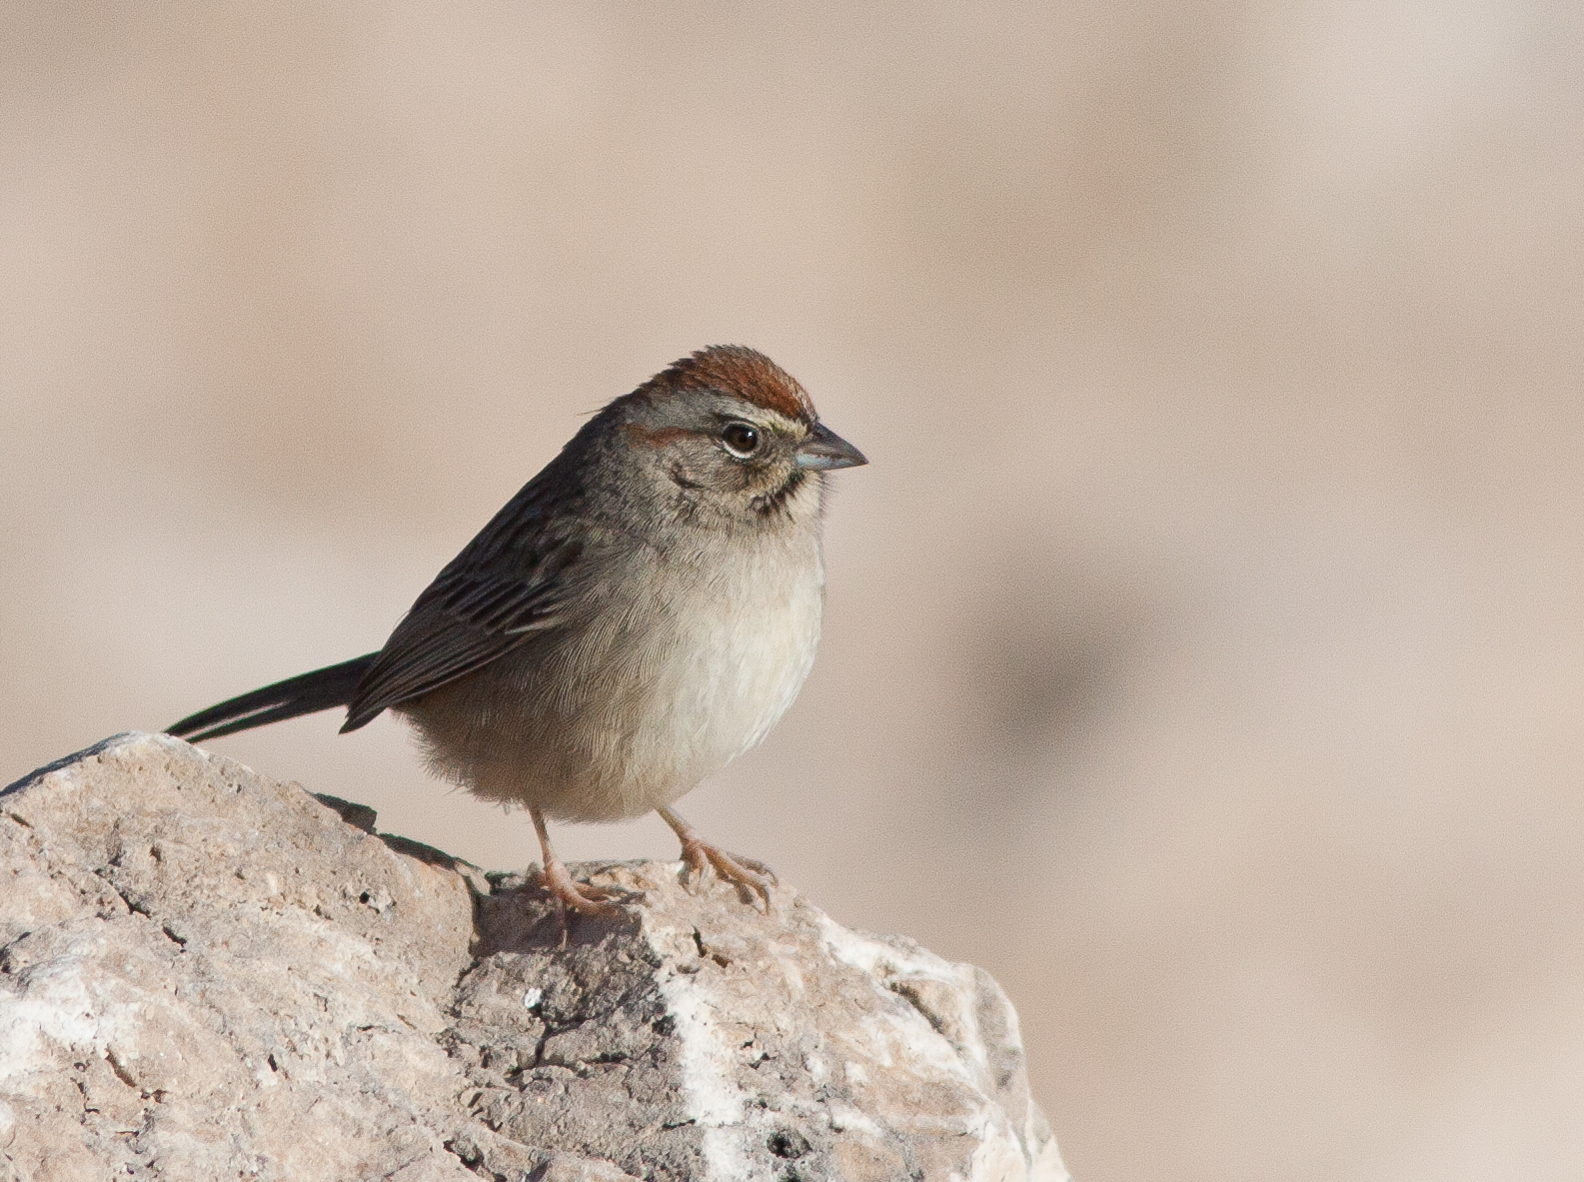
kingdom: Animalia
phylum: Chordata
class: Aves
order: Passeriformes
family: Passerellidae
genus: Aimophila
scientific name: Aimophila ruficeps
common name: Rufous-crowned sparrow
